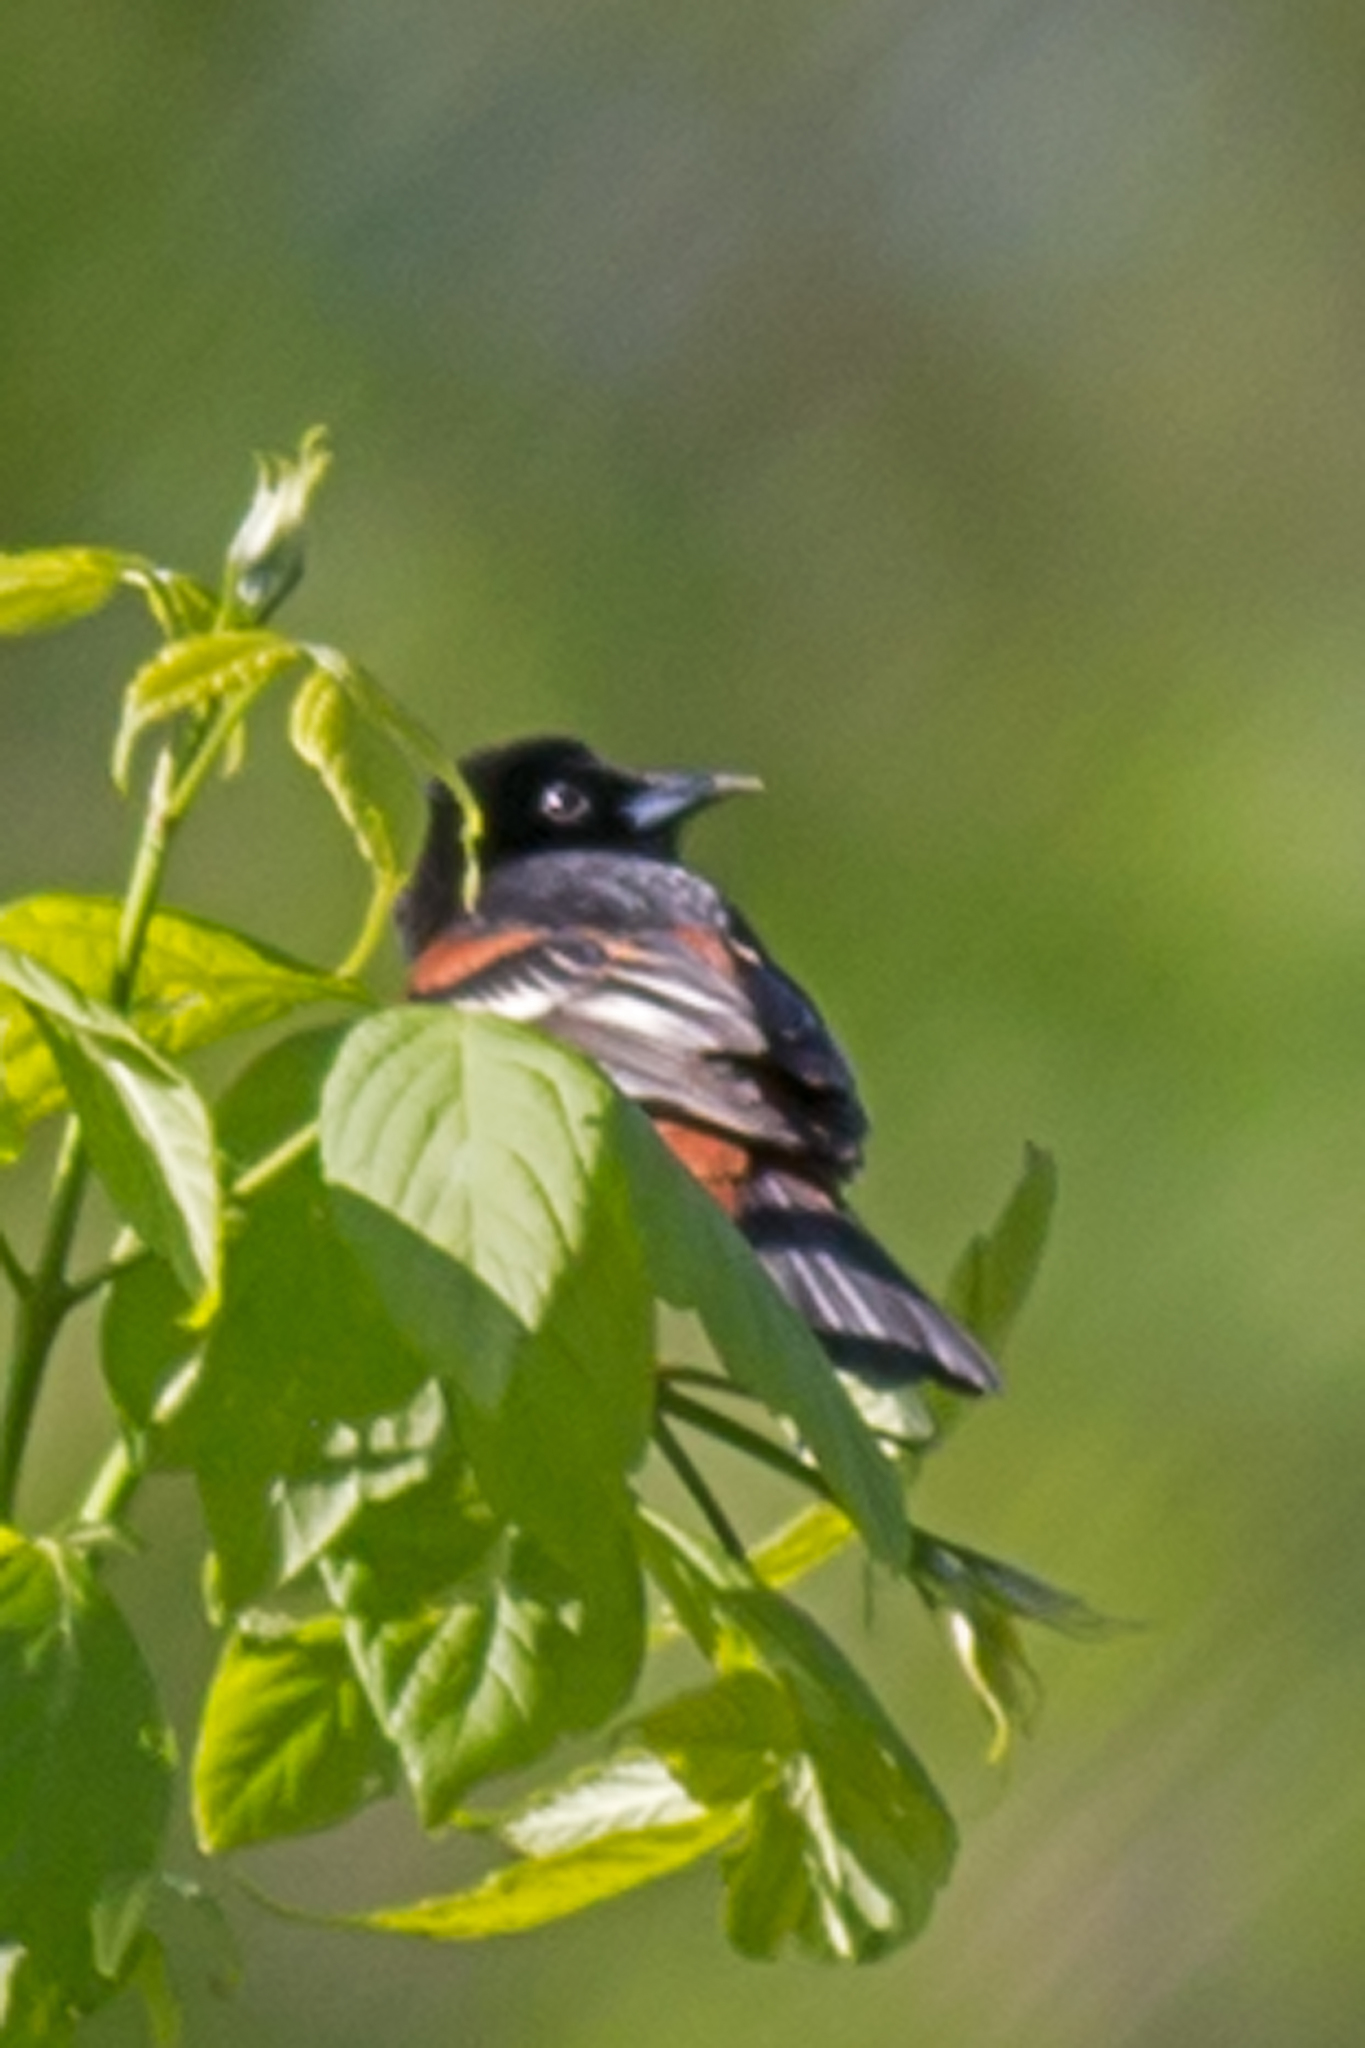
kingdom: Animalia
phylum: Chordata
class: Aves
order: Passeriformes
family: Icteridae
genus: Icterus
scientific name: Icterus spurius
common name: Orchard oriole
